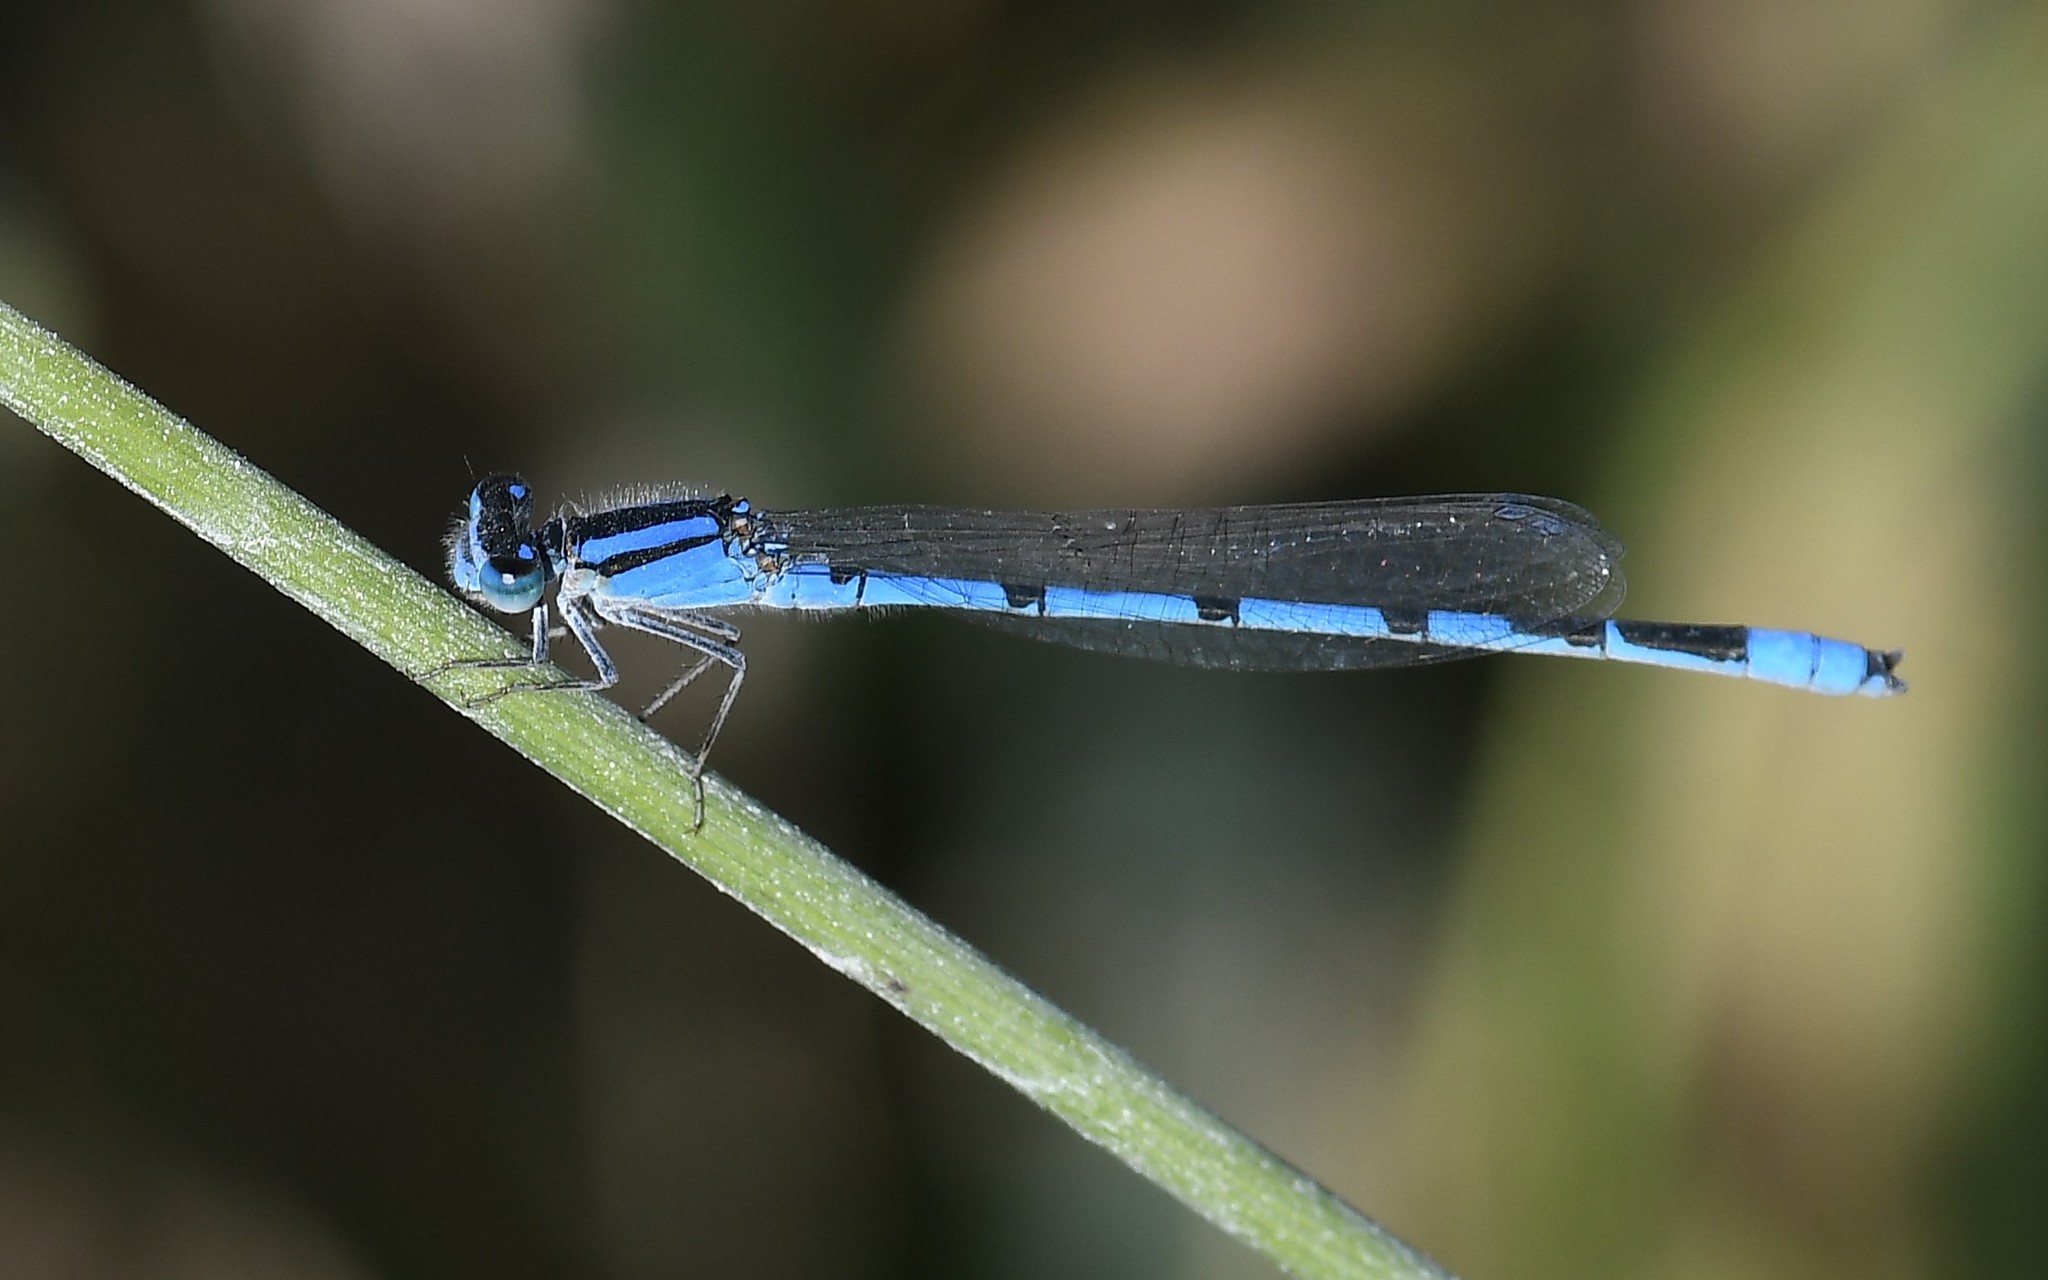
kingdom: Animalia
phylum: Arthropoda
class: Insecta
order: Odonata
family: Coenagrionidae
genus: Enallagma
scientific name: Enallagma civile
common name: Damselfly
